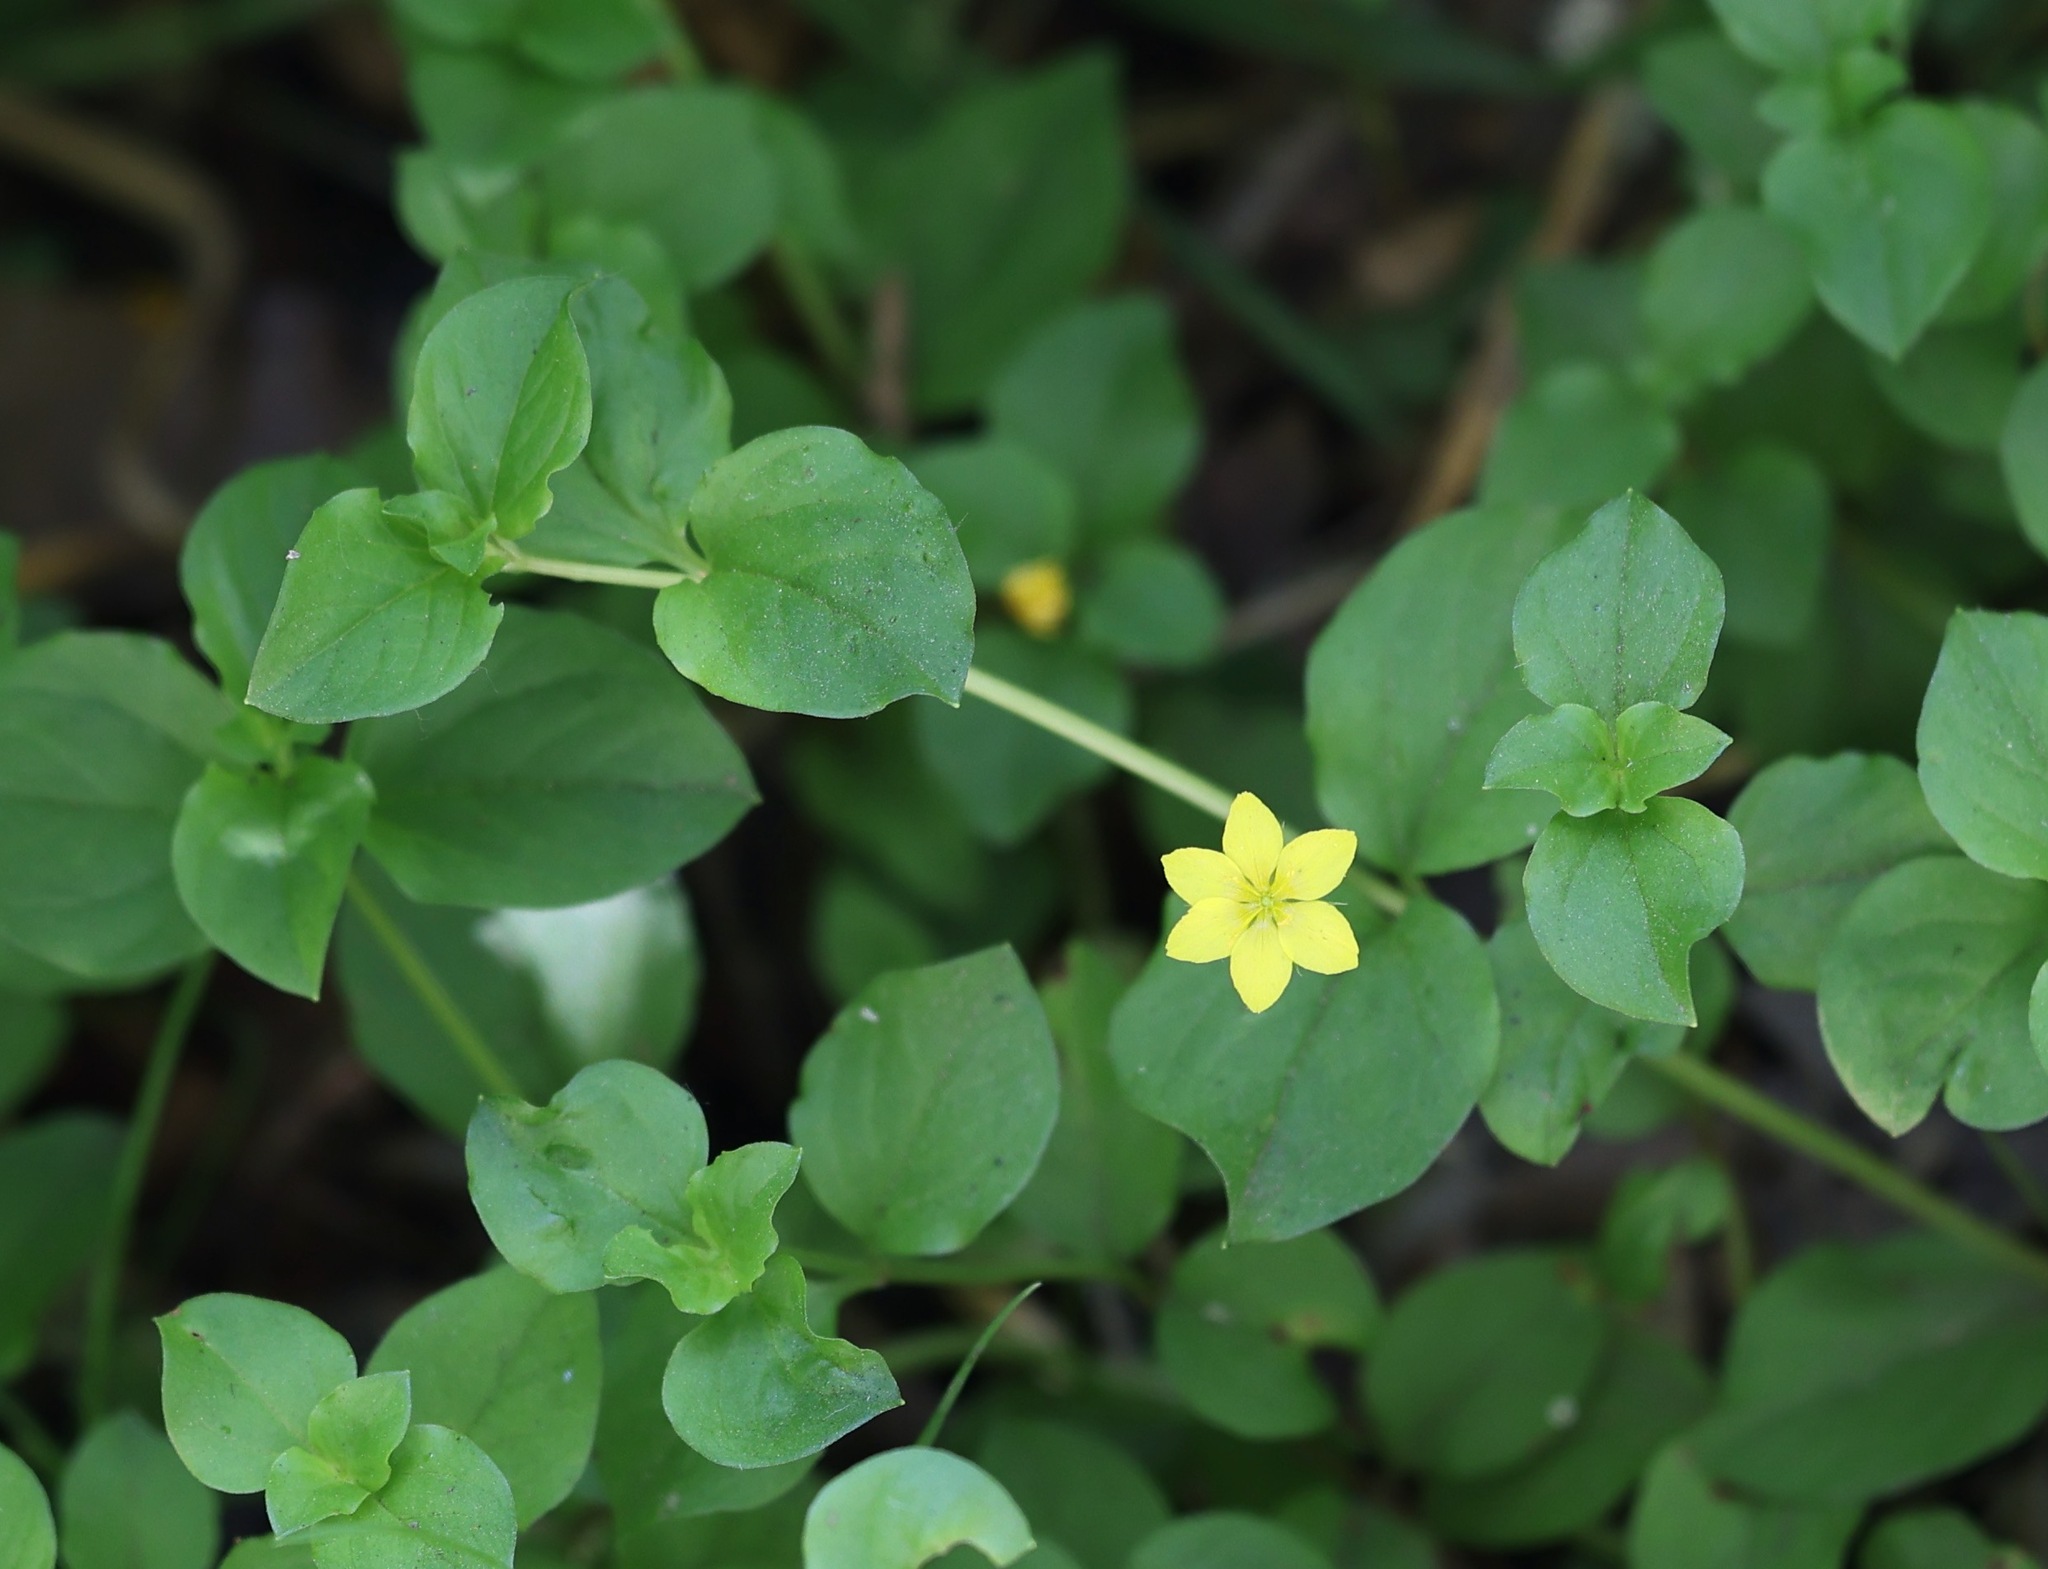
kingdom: Plantae
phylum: Tracheophyta
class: Magnoliopsida
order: Ericales
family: Primulaceae
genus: Lysimachia
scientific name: Lysimachia nemorum
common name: Yellow pimpernel
